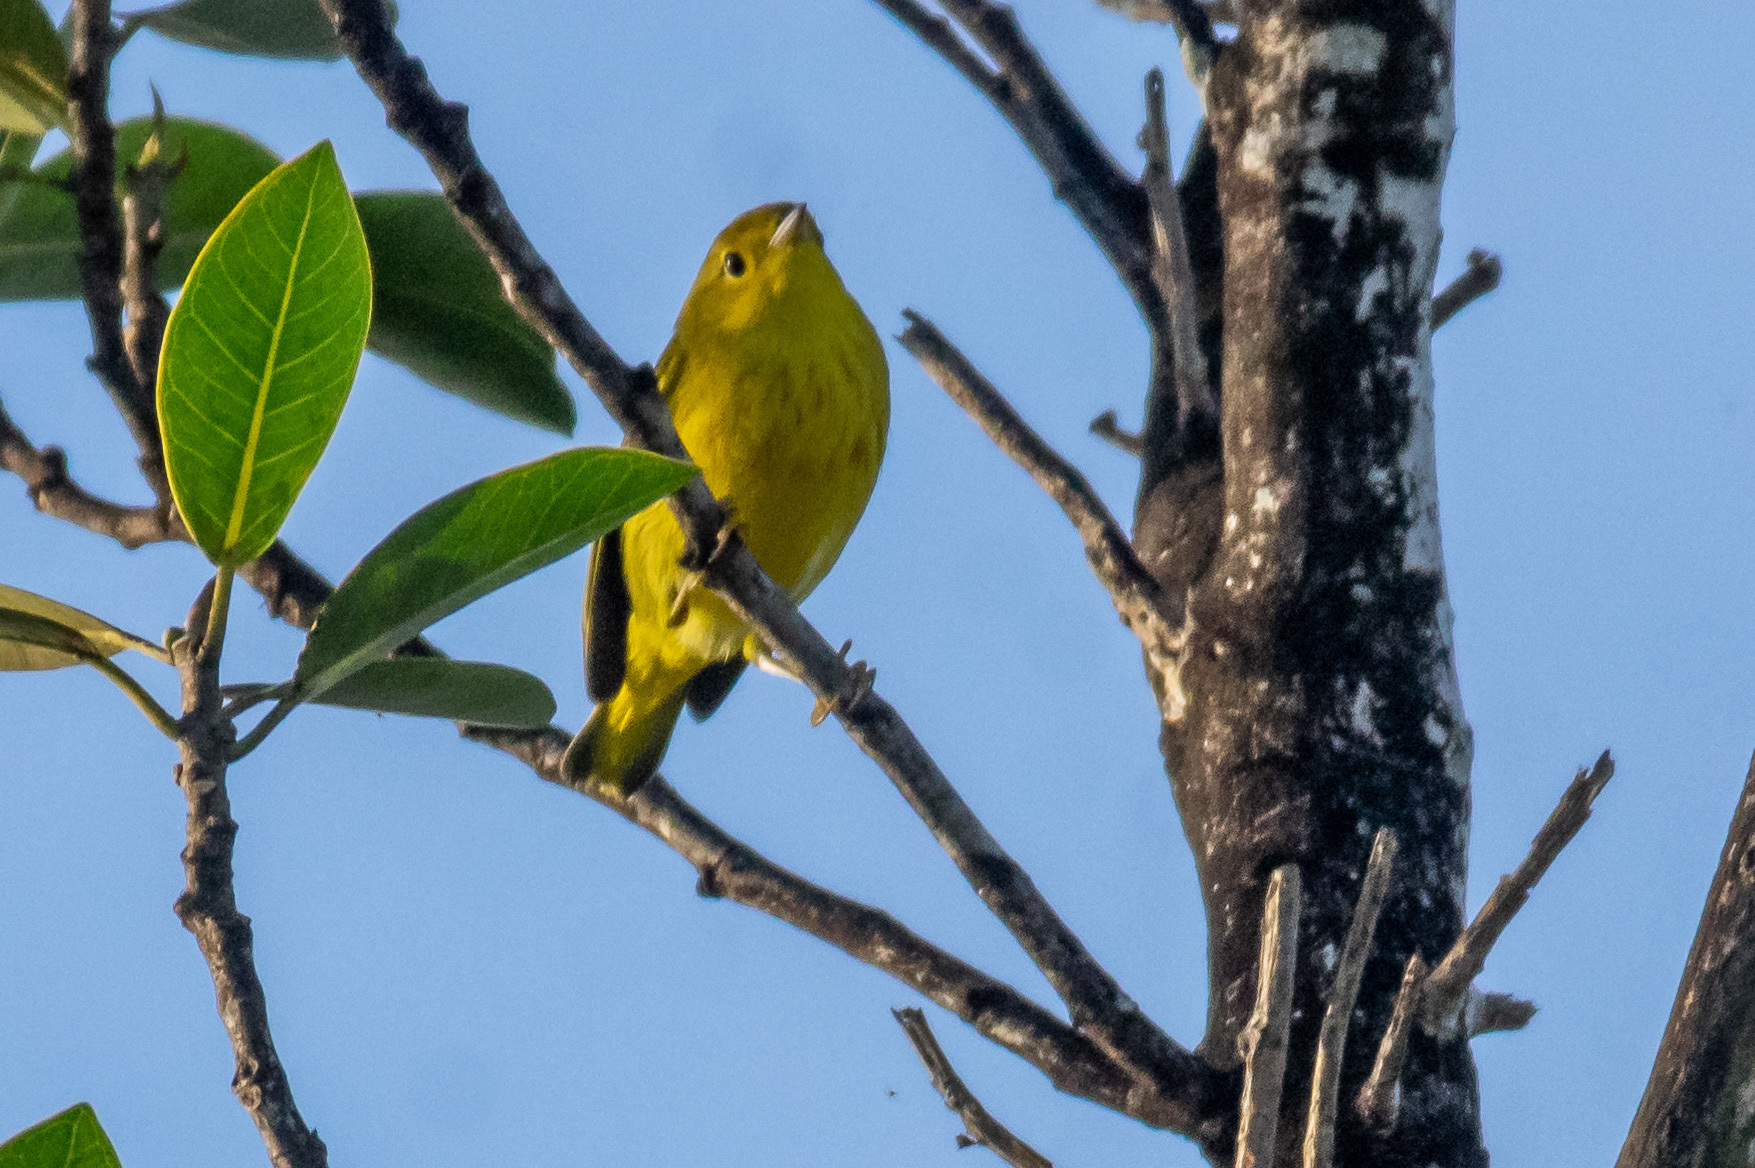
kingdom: Animalia
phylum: Chordata
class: Aves
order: Passeriformes
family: Parulidae
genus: Setophaga
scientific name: Setophaga petechia
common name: Yellow warbler
